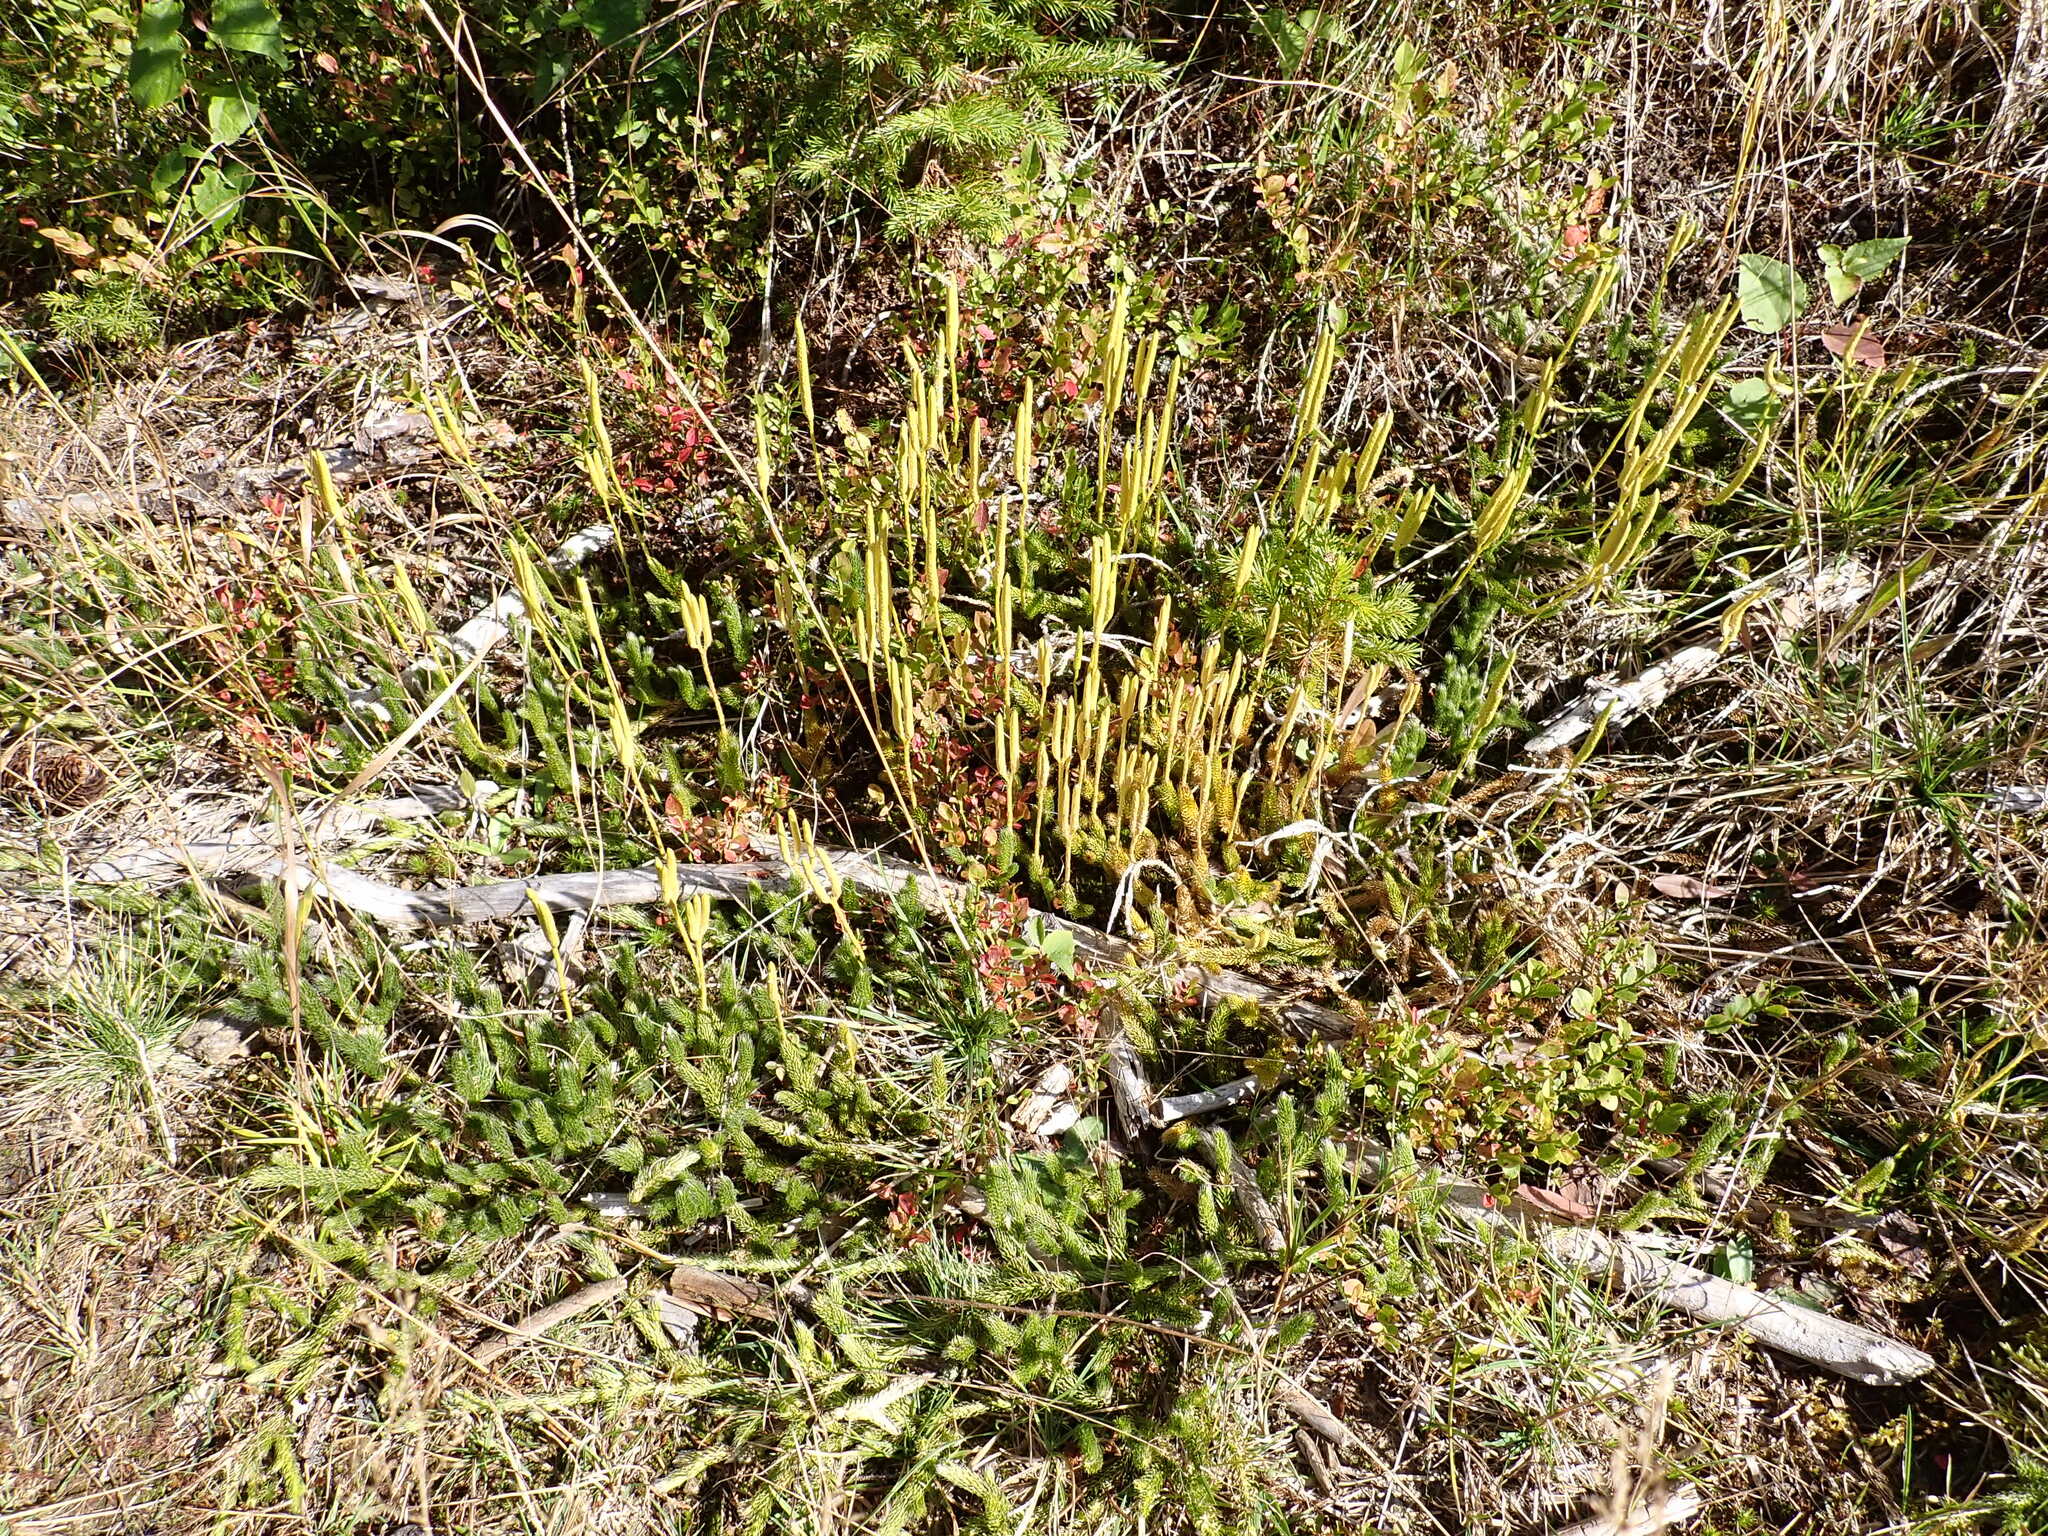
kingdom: Plantae
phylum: Tracheophyta
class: Lycopodiopsida
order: Lycopodiales
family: Lycopodiaceae
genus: Lycopodium
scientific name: Lycopodium clavatum
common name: Stag's-horn clubmoss
